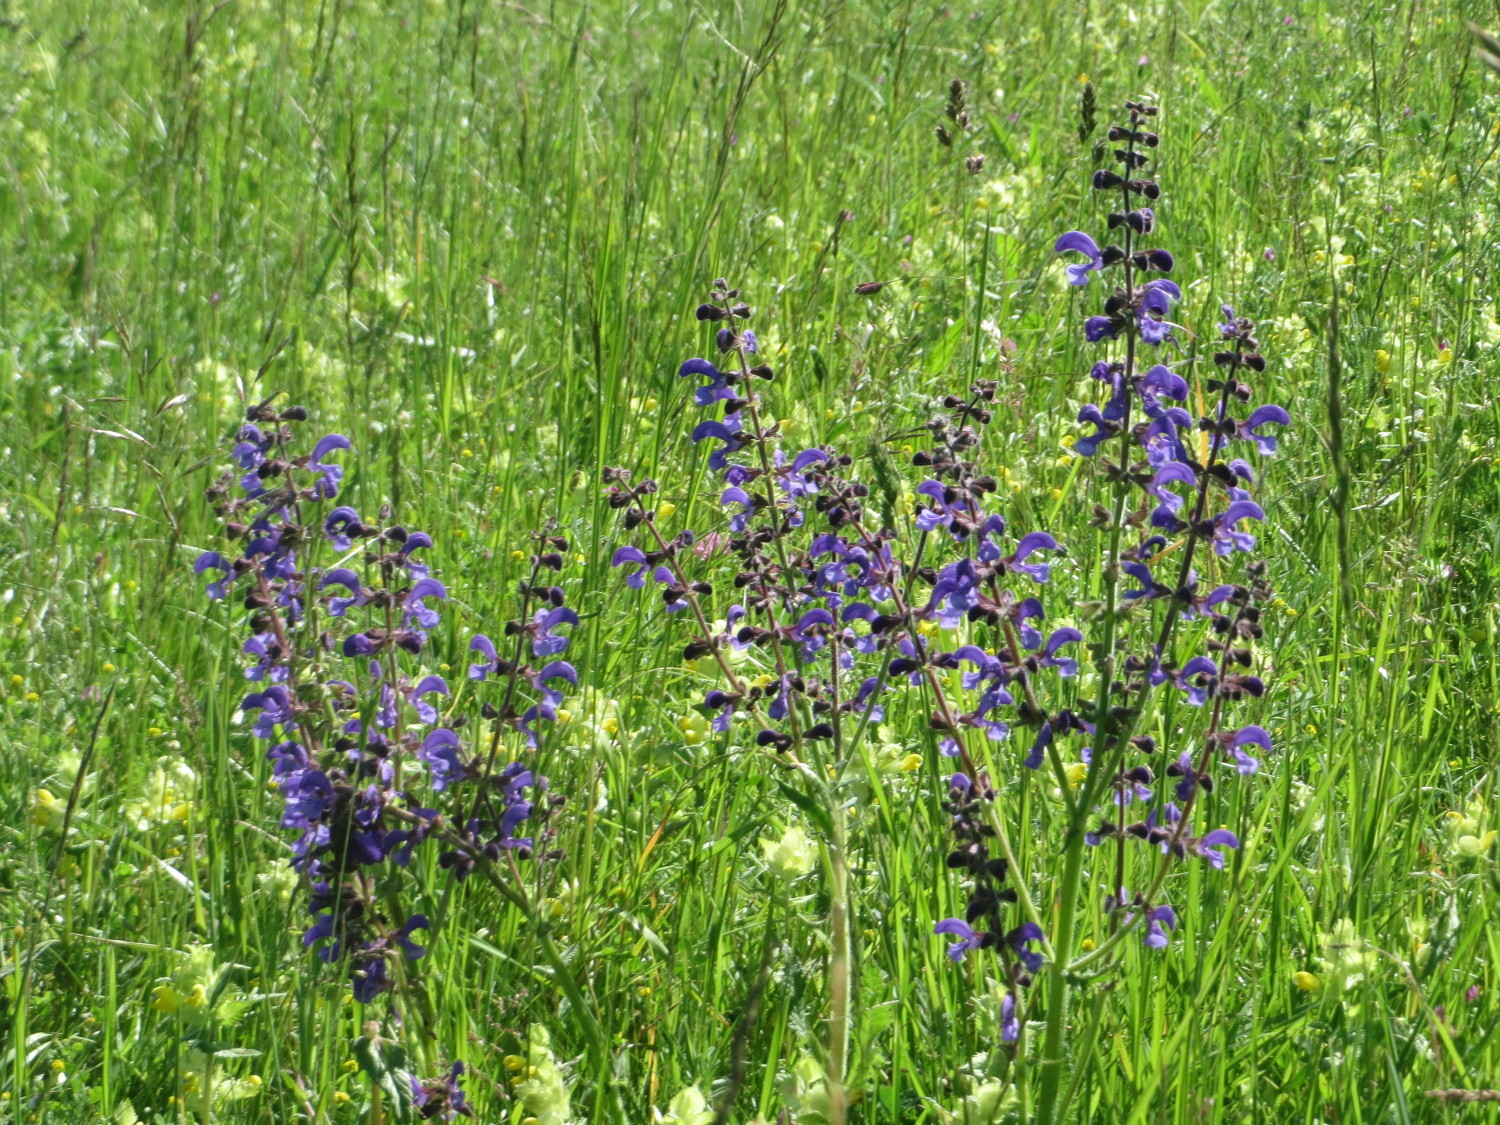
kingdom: Plantae
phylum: Tracheophyta
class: Magnoliopsida
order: Lamiales
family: Lamiaceae
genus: Salvia
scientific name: Salvia pratensis
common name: Meadow sage
